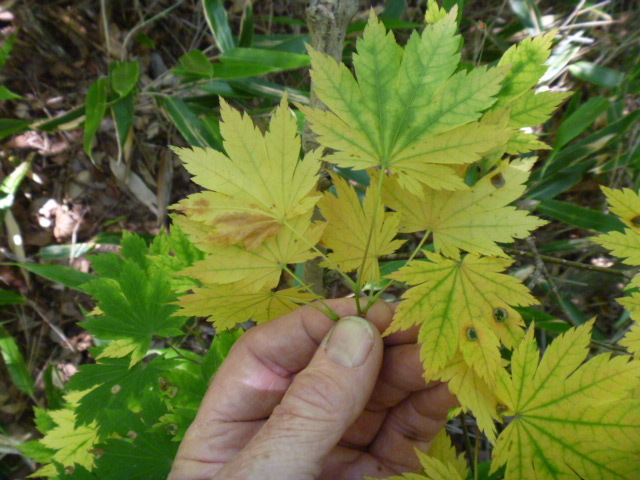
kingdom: Plantae
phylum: Tracheophyta
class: Magnoliopsida
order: Sapindales
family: Sapindaceae
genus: Acer
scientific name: Acer pseudosieboldianum
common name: Korean maple
